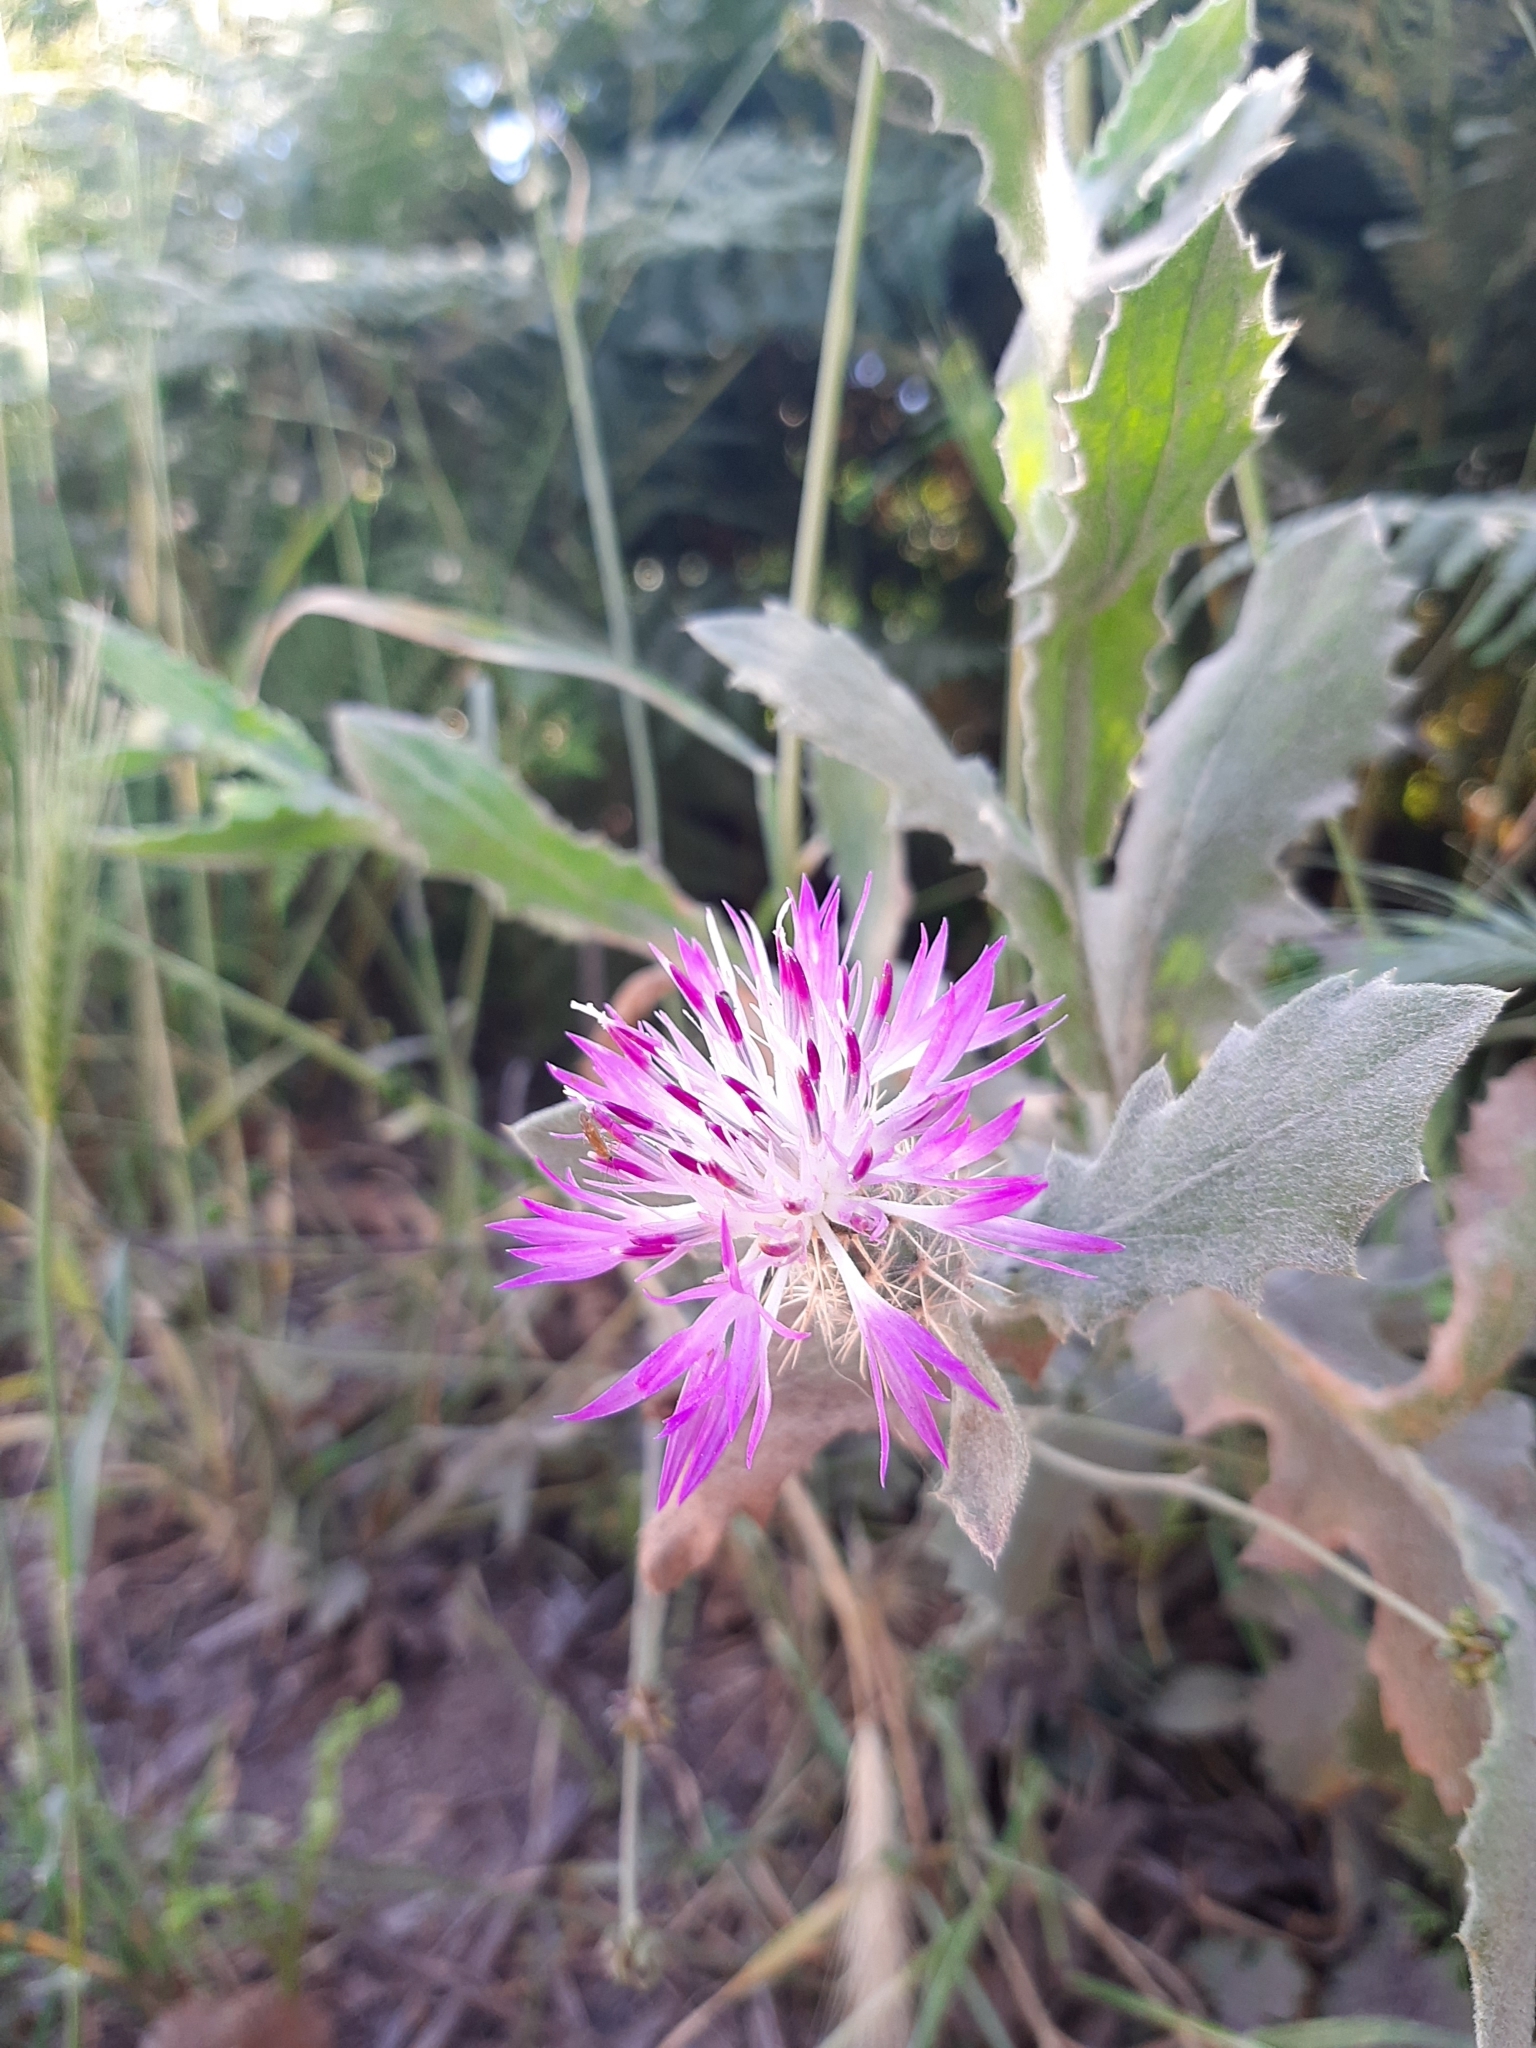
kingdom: Plantae
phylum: Tracheophyta
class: Magnoliopsida
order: Asterales
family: Asteraceae
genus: Centaurea
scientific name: Centaurea seridis
